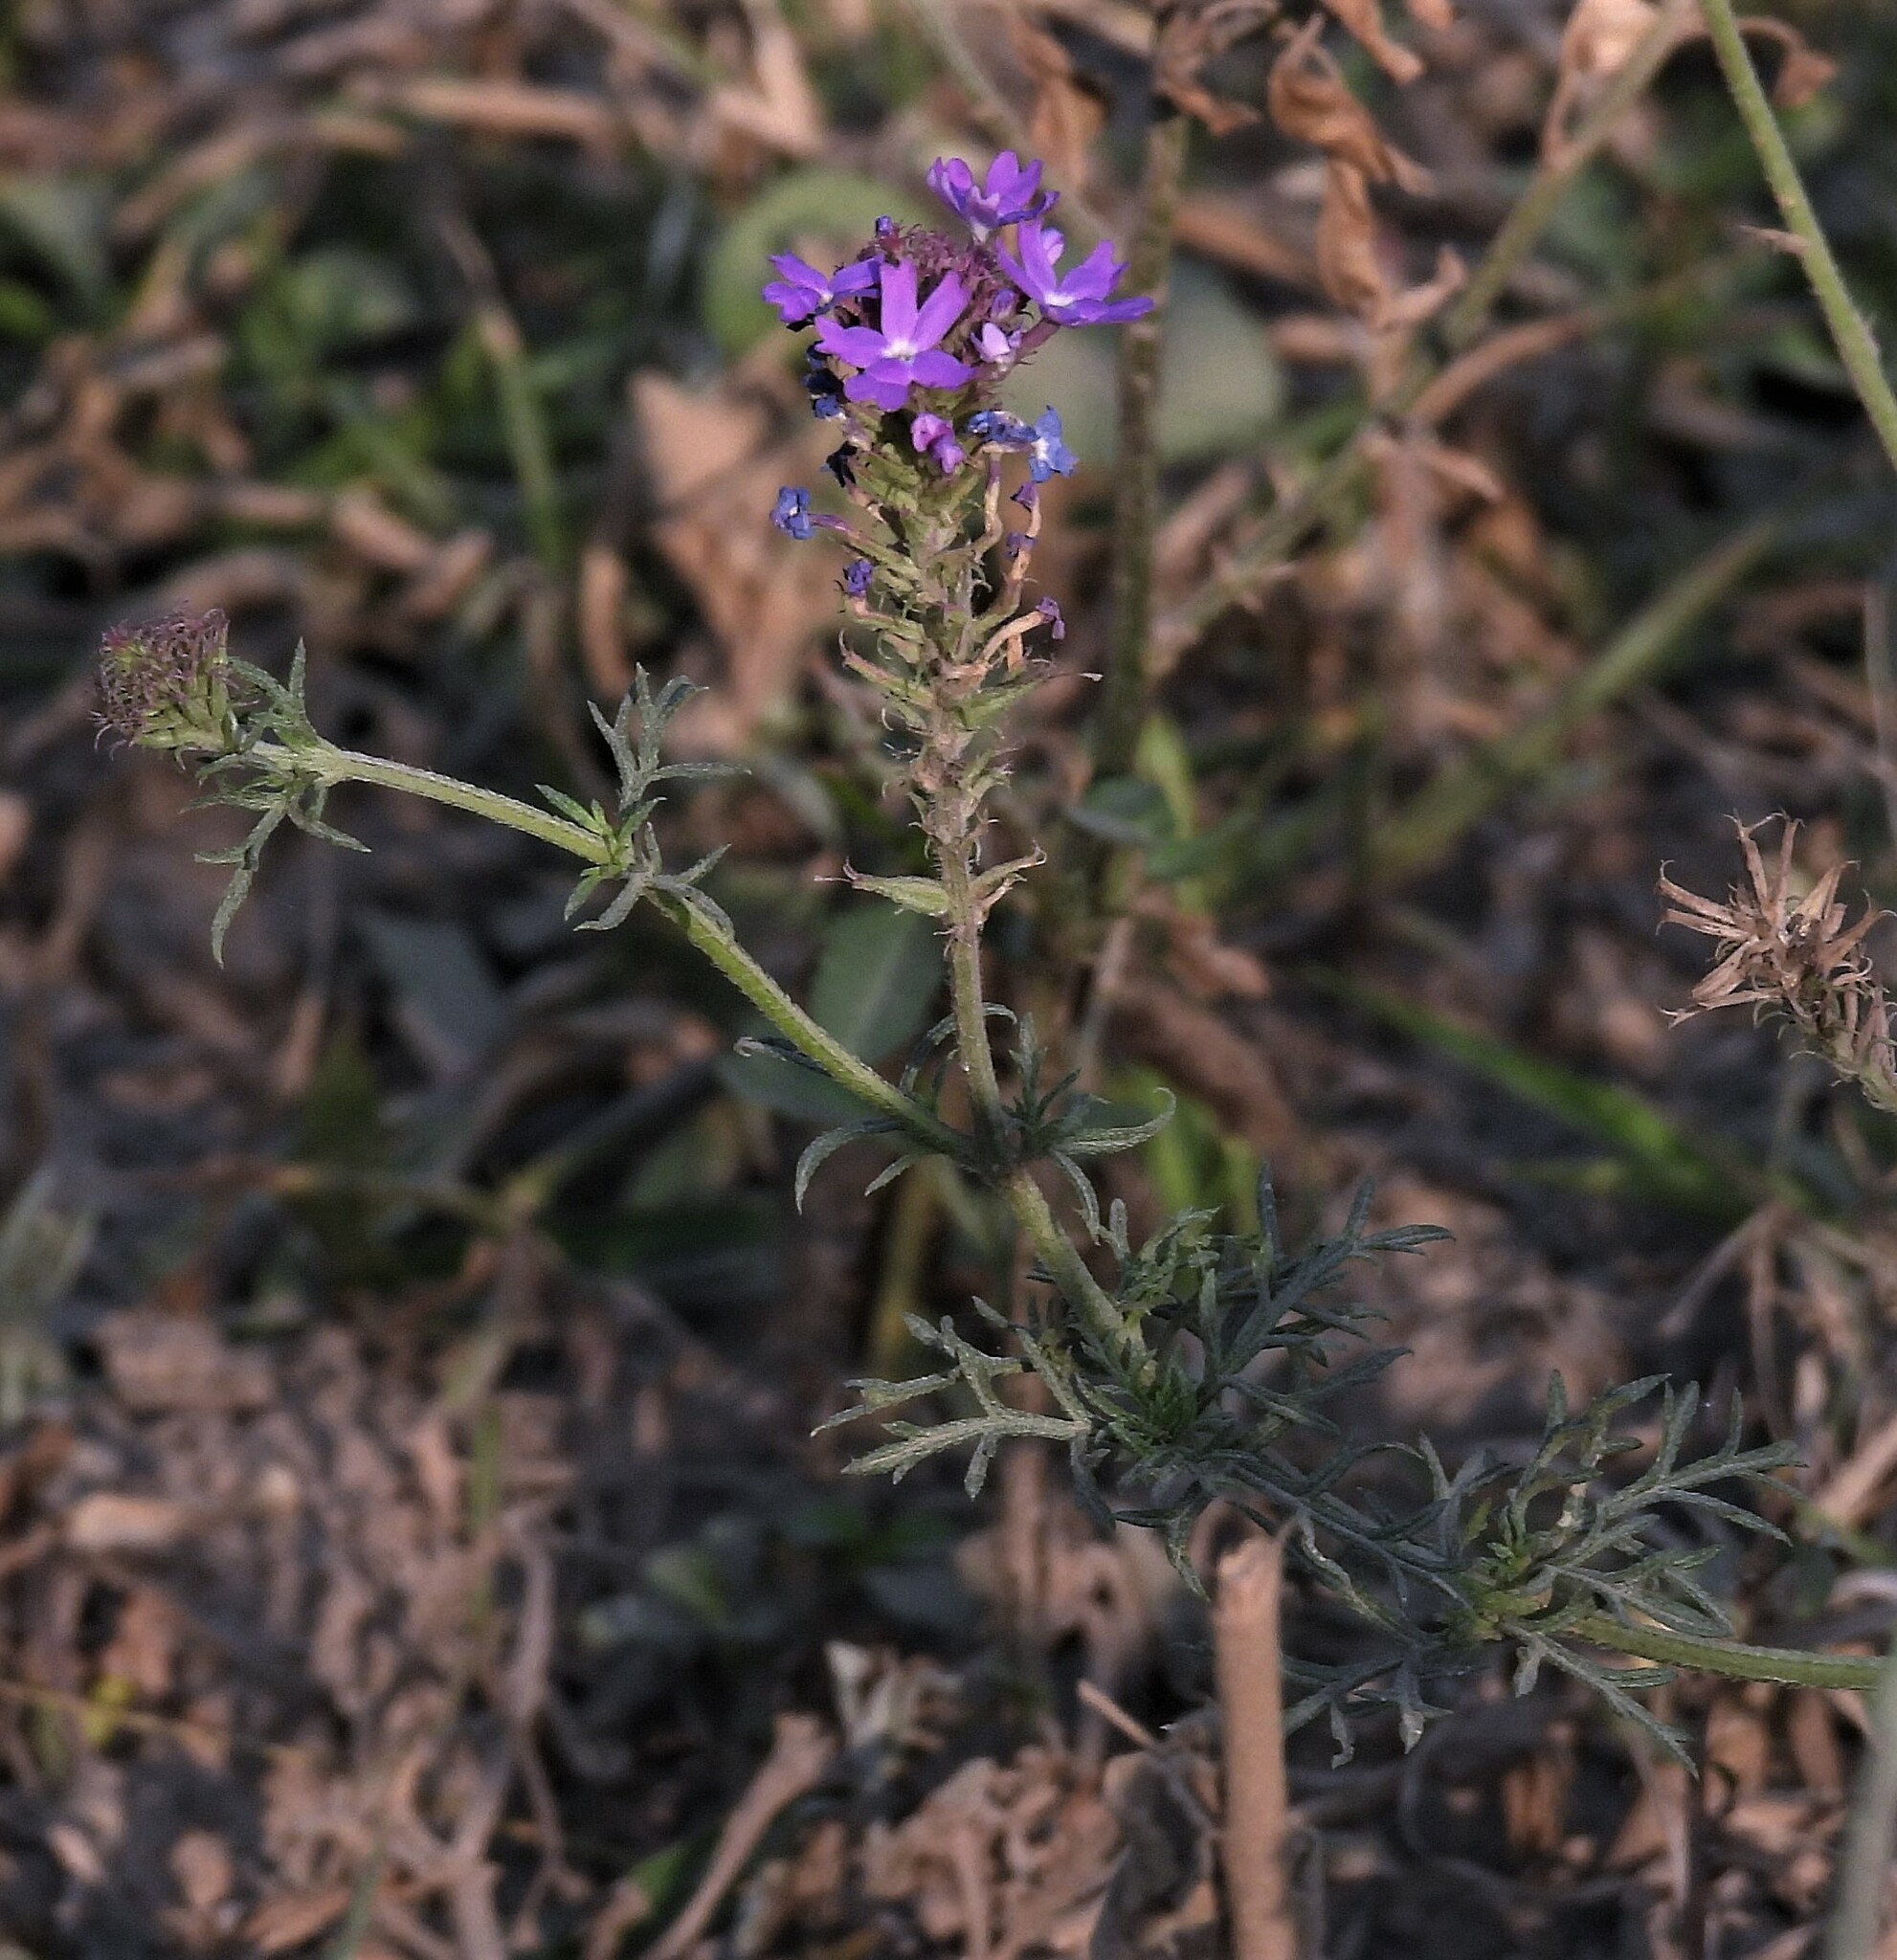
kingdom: Plantae
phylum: Tracheophyta
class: Magnoliopsida
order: Lamiales
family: Verbenaceae
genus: Verbena
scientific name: Verbena aristigera
